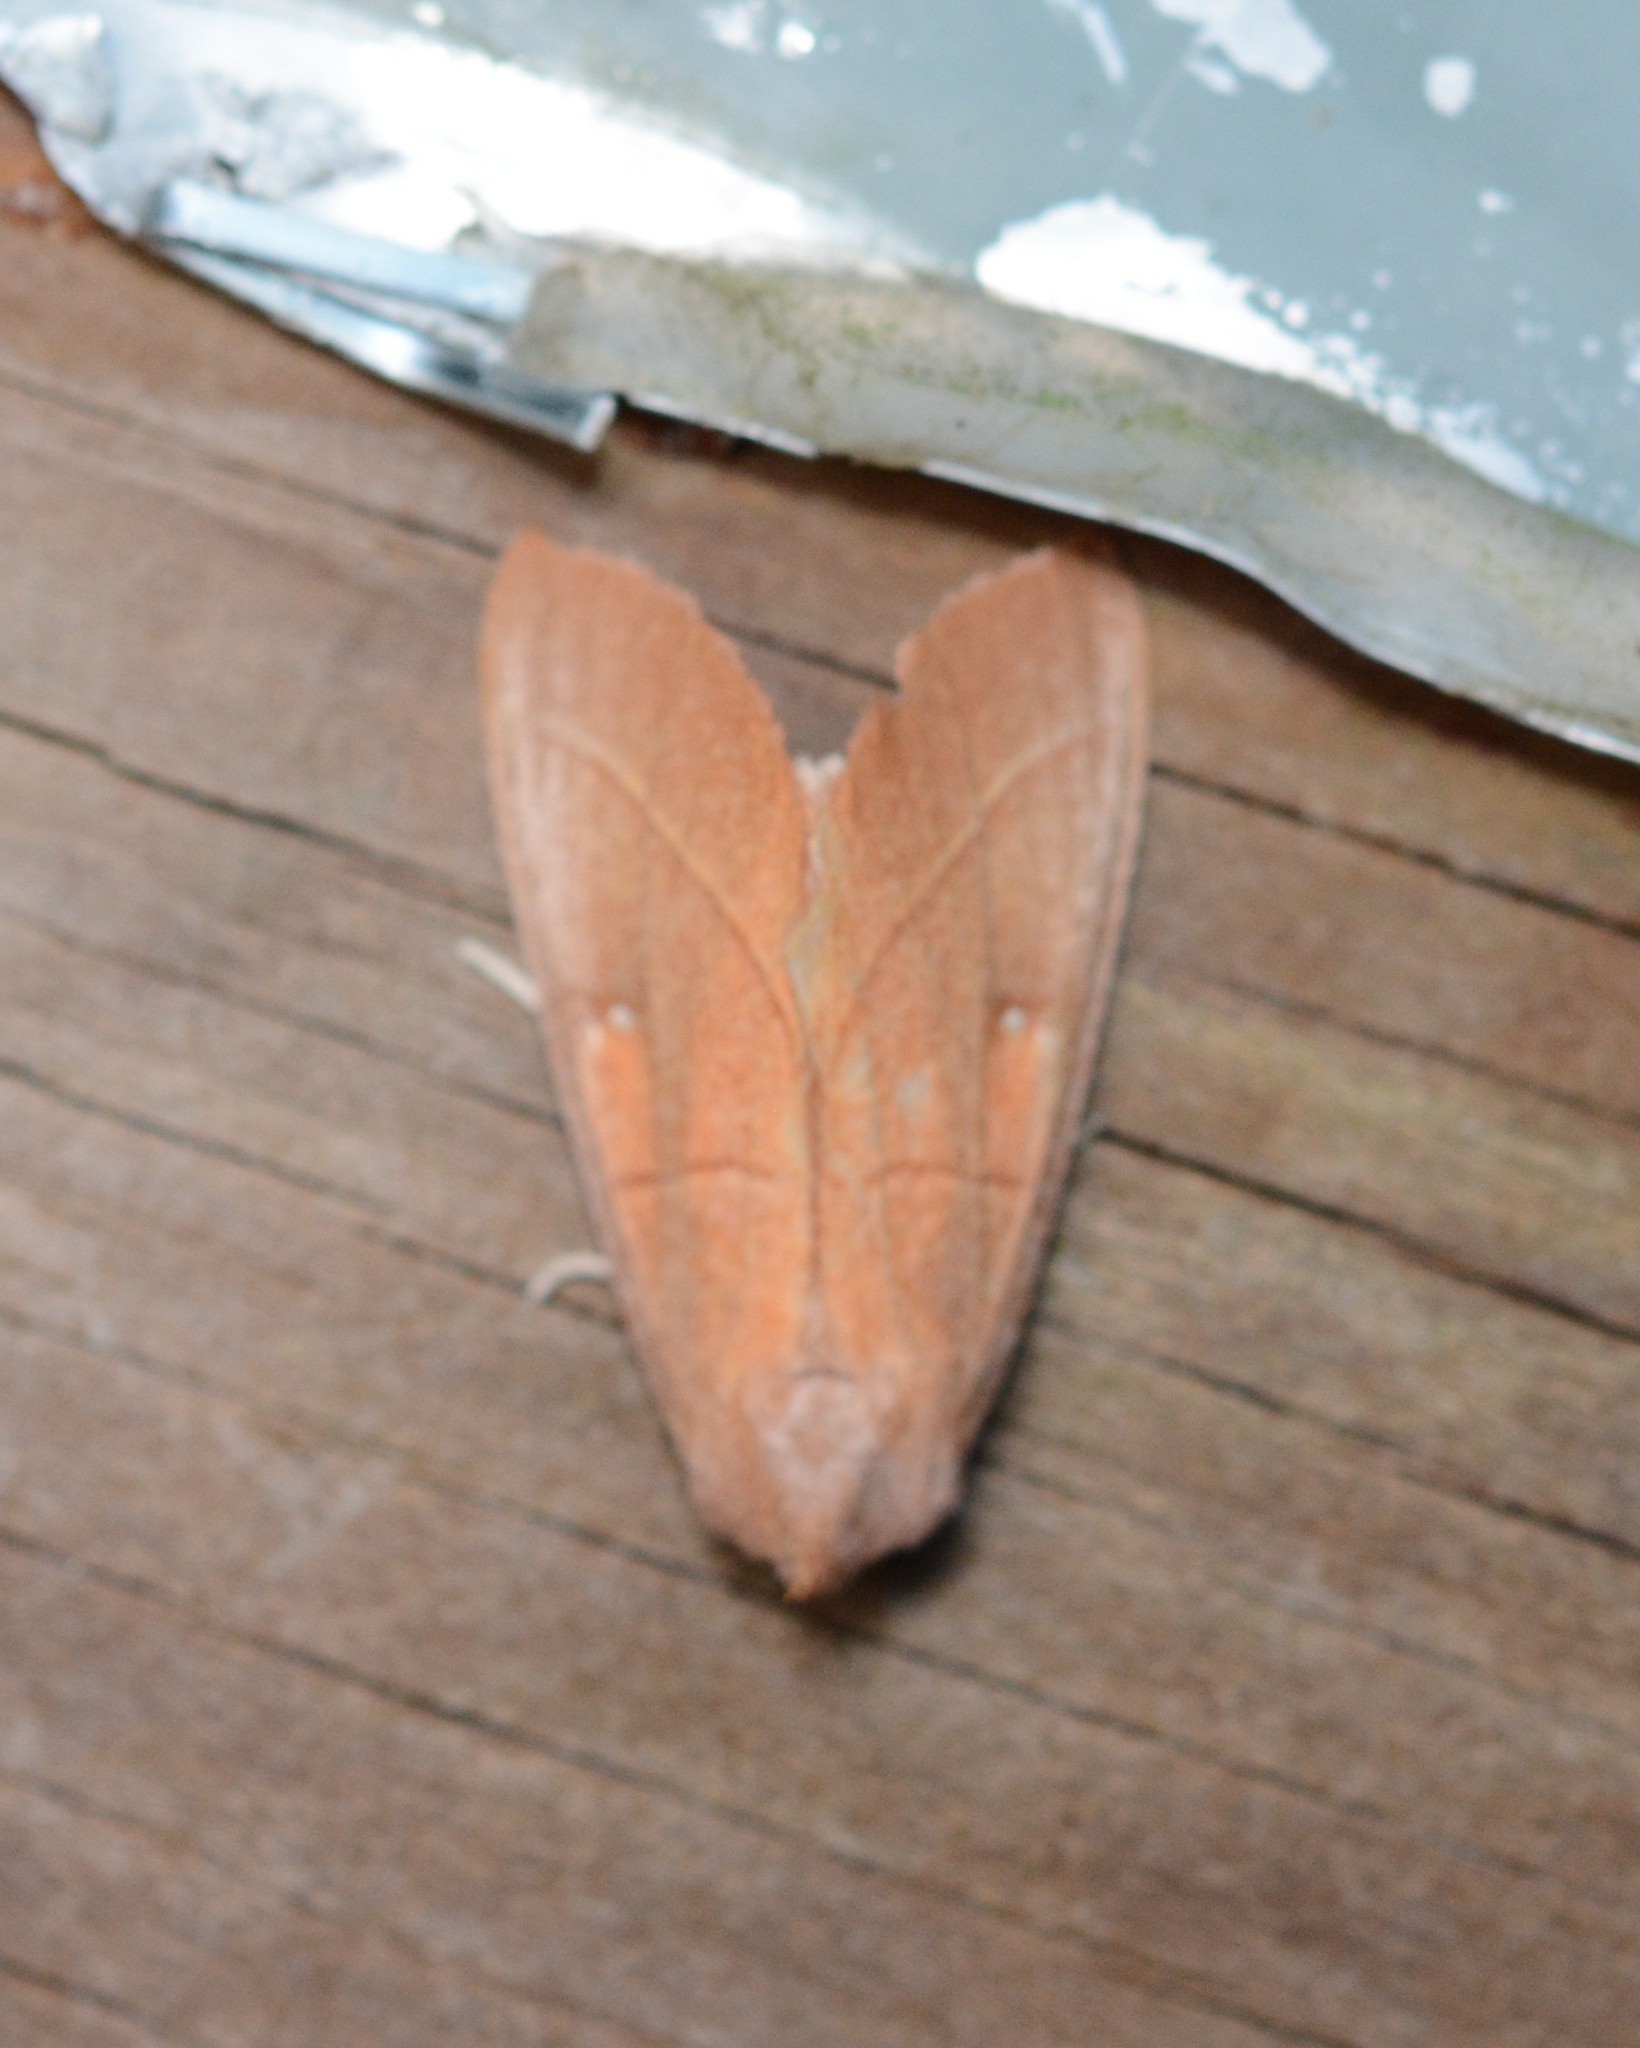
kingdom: Animalia
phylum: Arthropoda
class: Insecta
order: Lepidoptera
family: Notodontidae
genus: Nadata
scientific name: Nadata gibbosa
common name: White-dotted prominent
